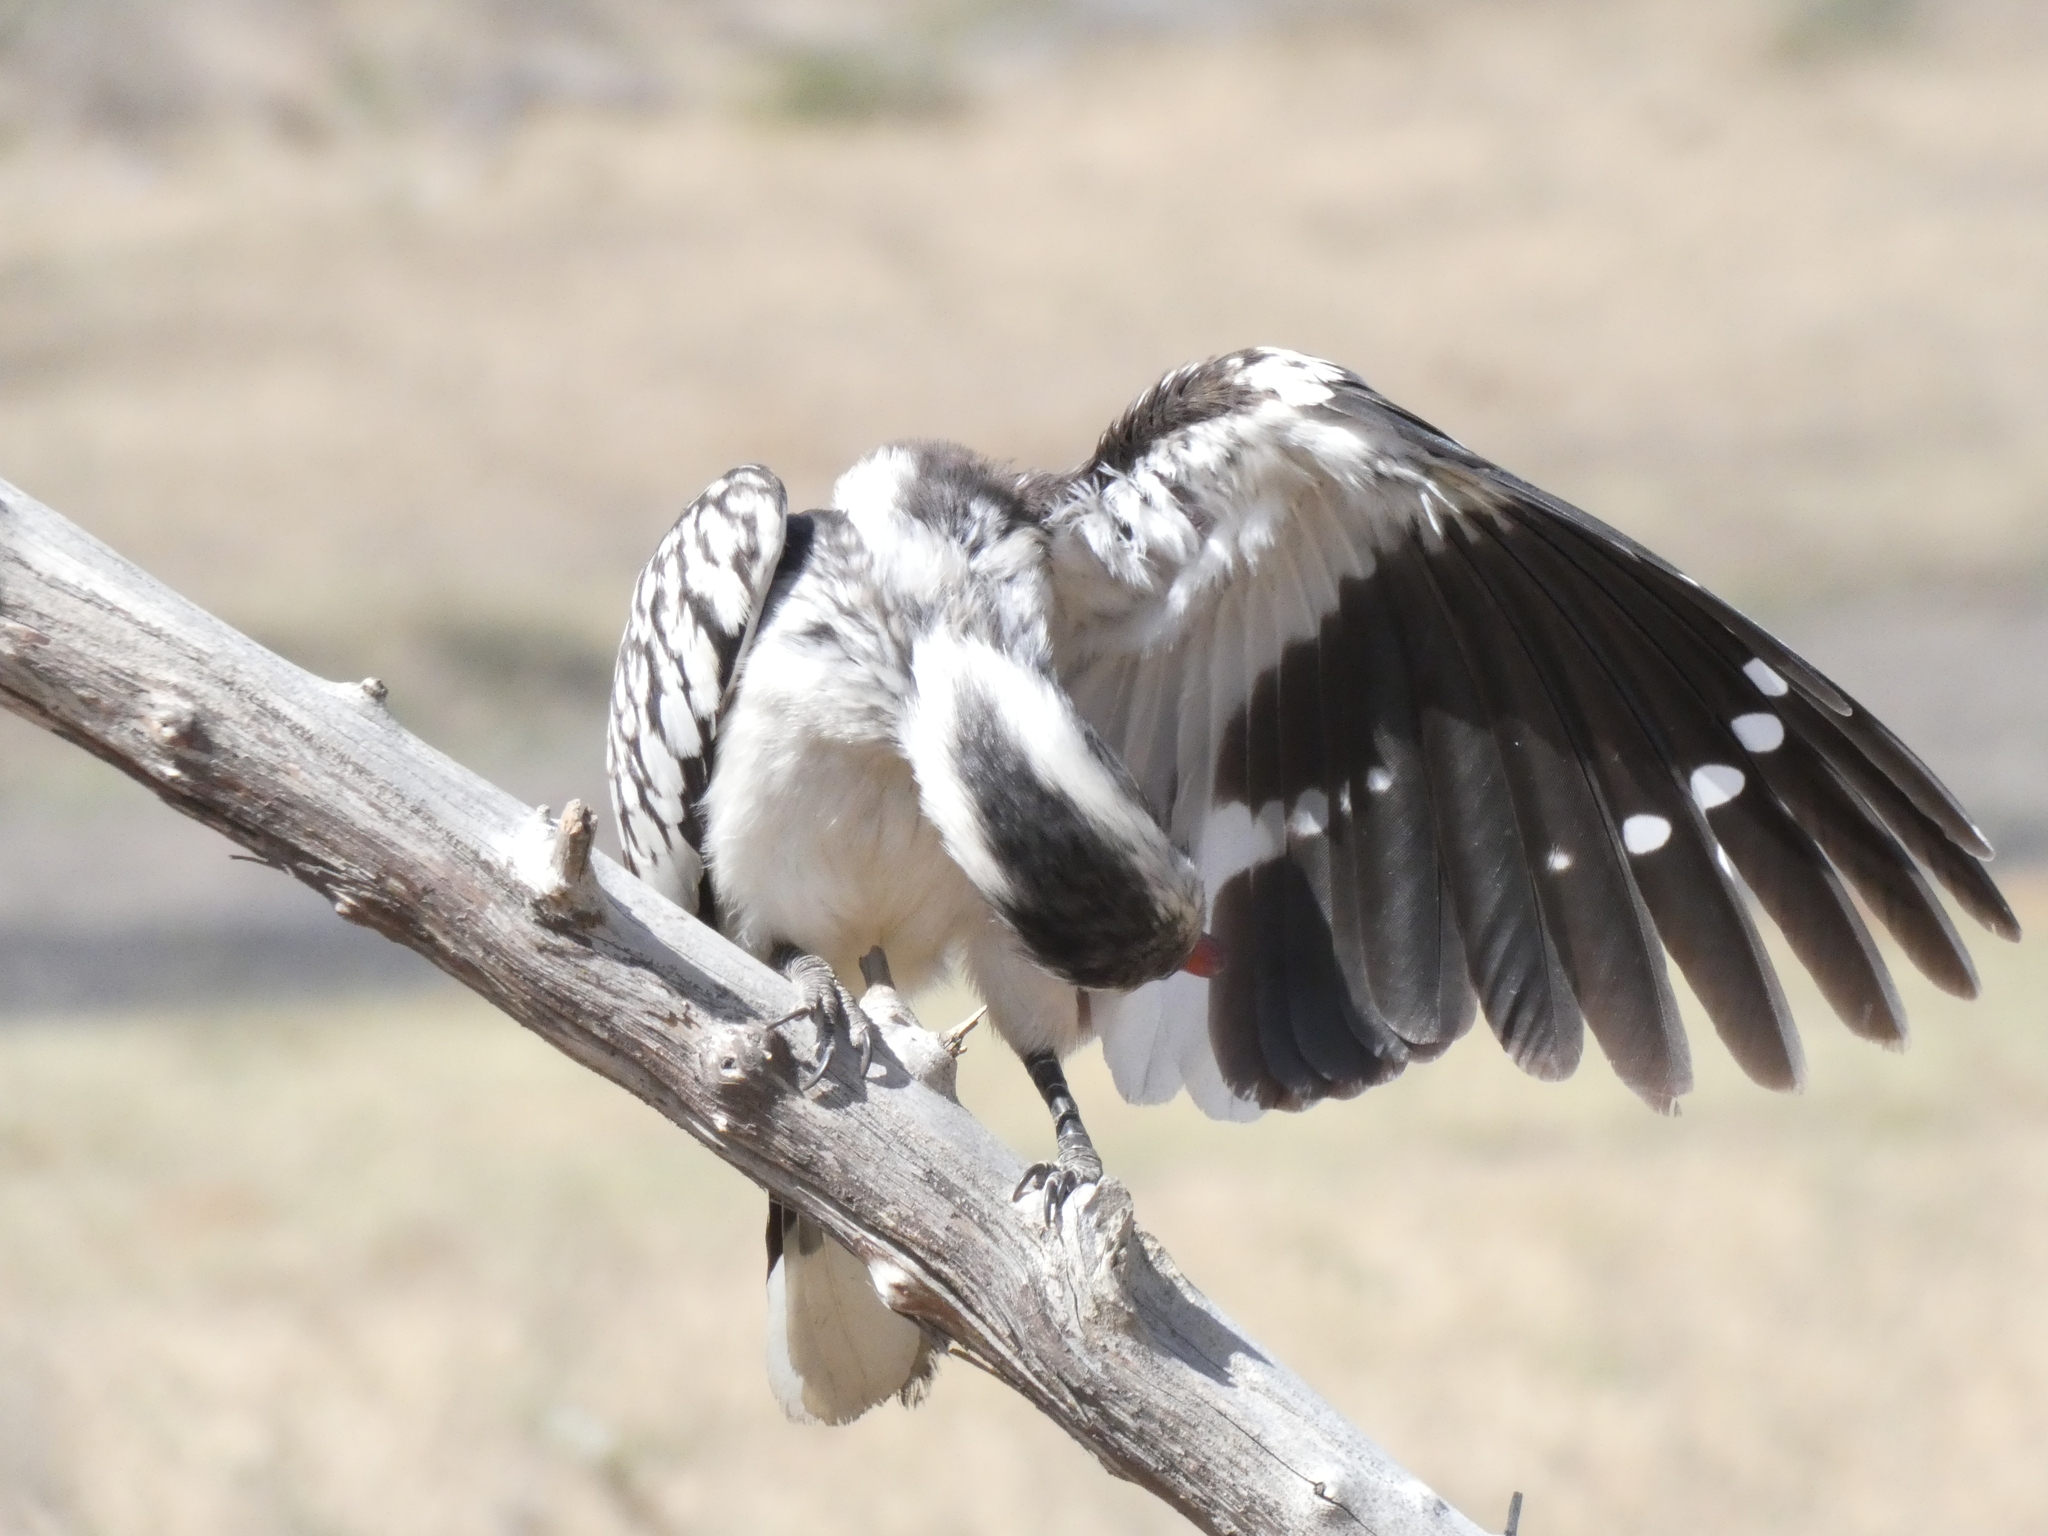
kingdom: Animalia
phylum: Chordata
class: Aves
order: Bucerotiformes
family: Bucerotidae
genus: Tockus
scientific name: Tockus rufirostris
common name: Southern red-billed hornbill
